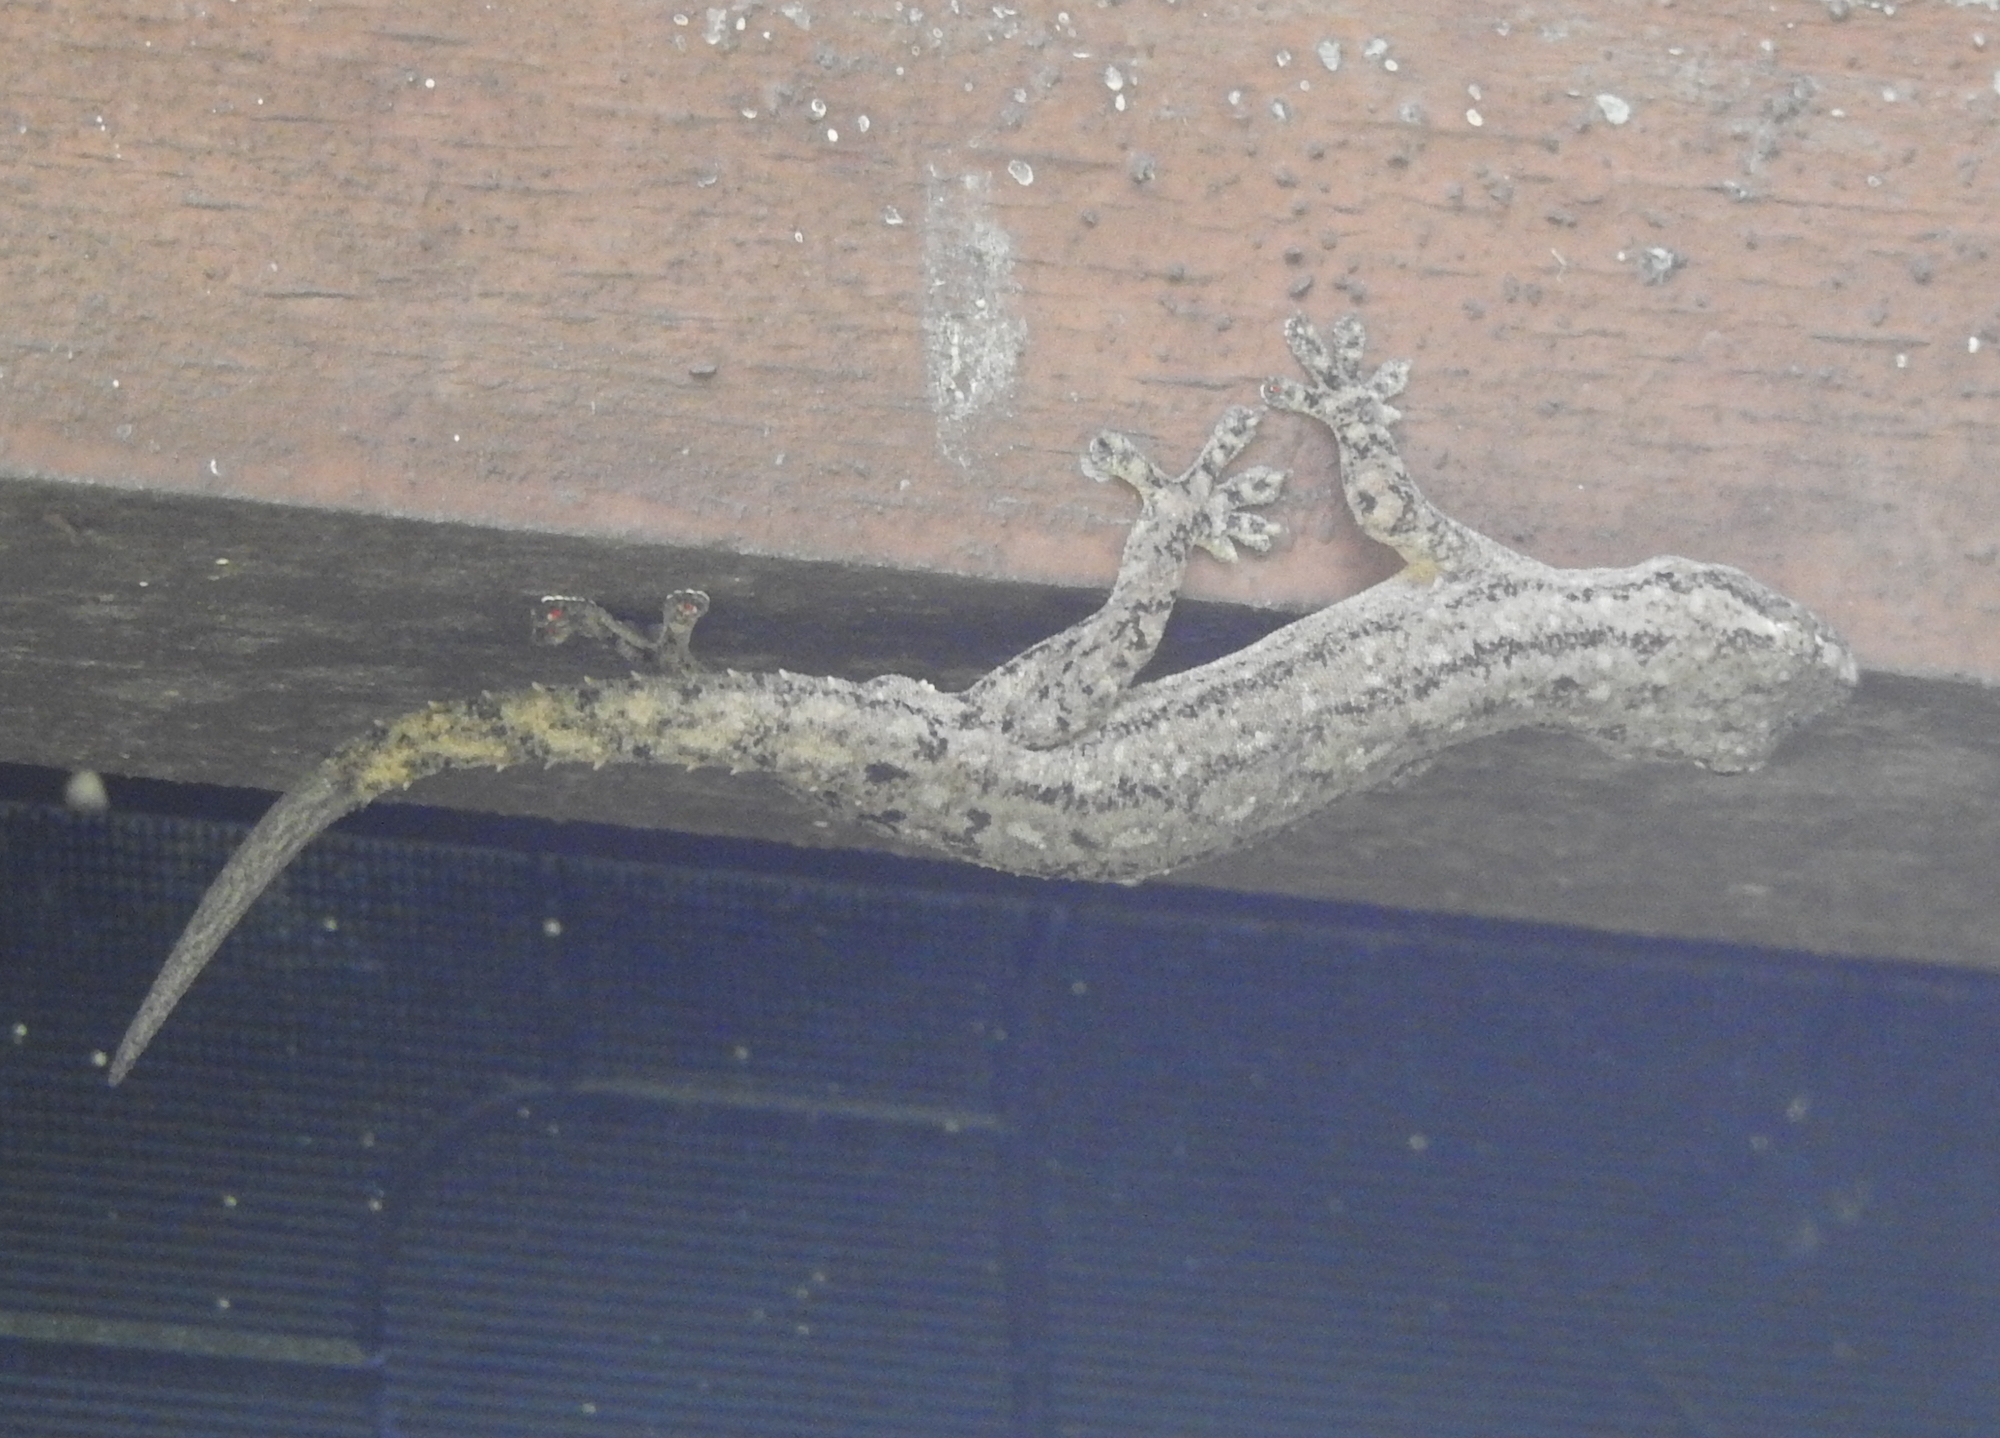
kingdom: Animalia
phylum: Chordata
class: Squamata
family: Gekkonidae
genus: Hemidactylus
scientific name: Hemidactylus frenatus
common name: Common house gecko
